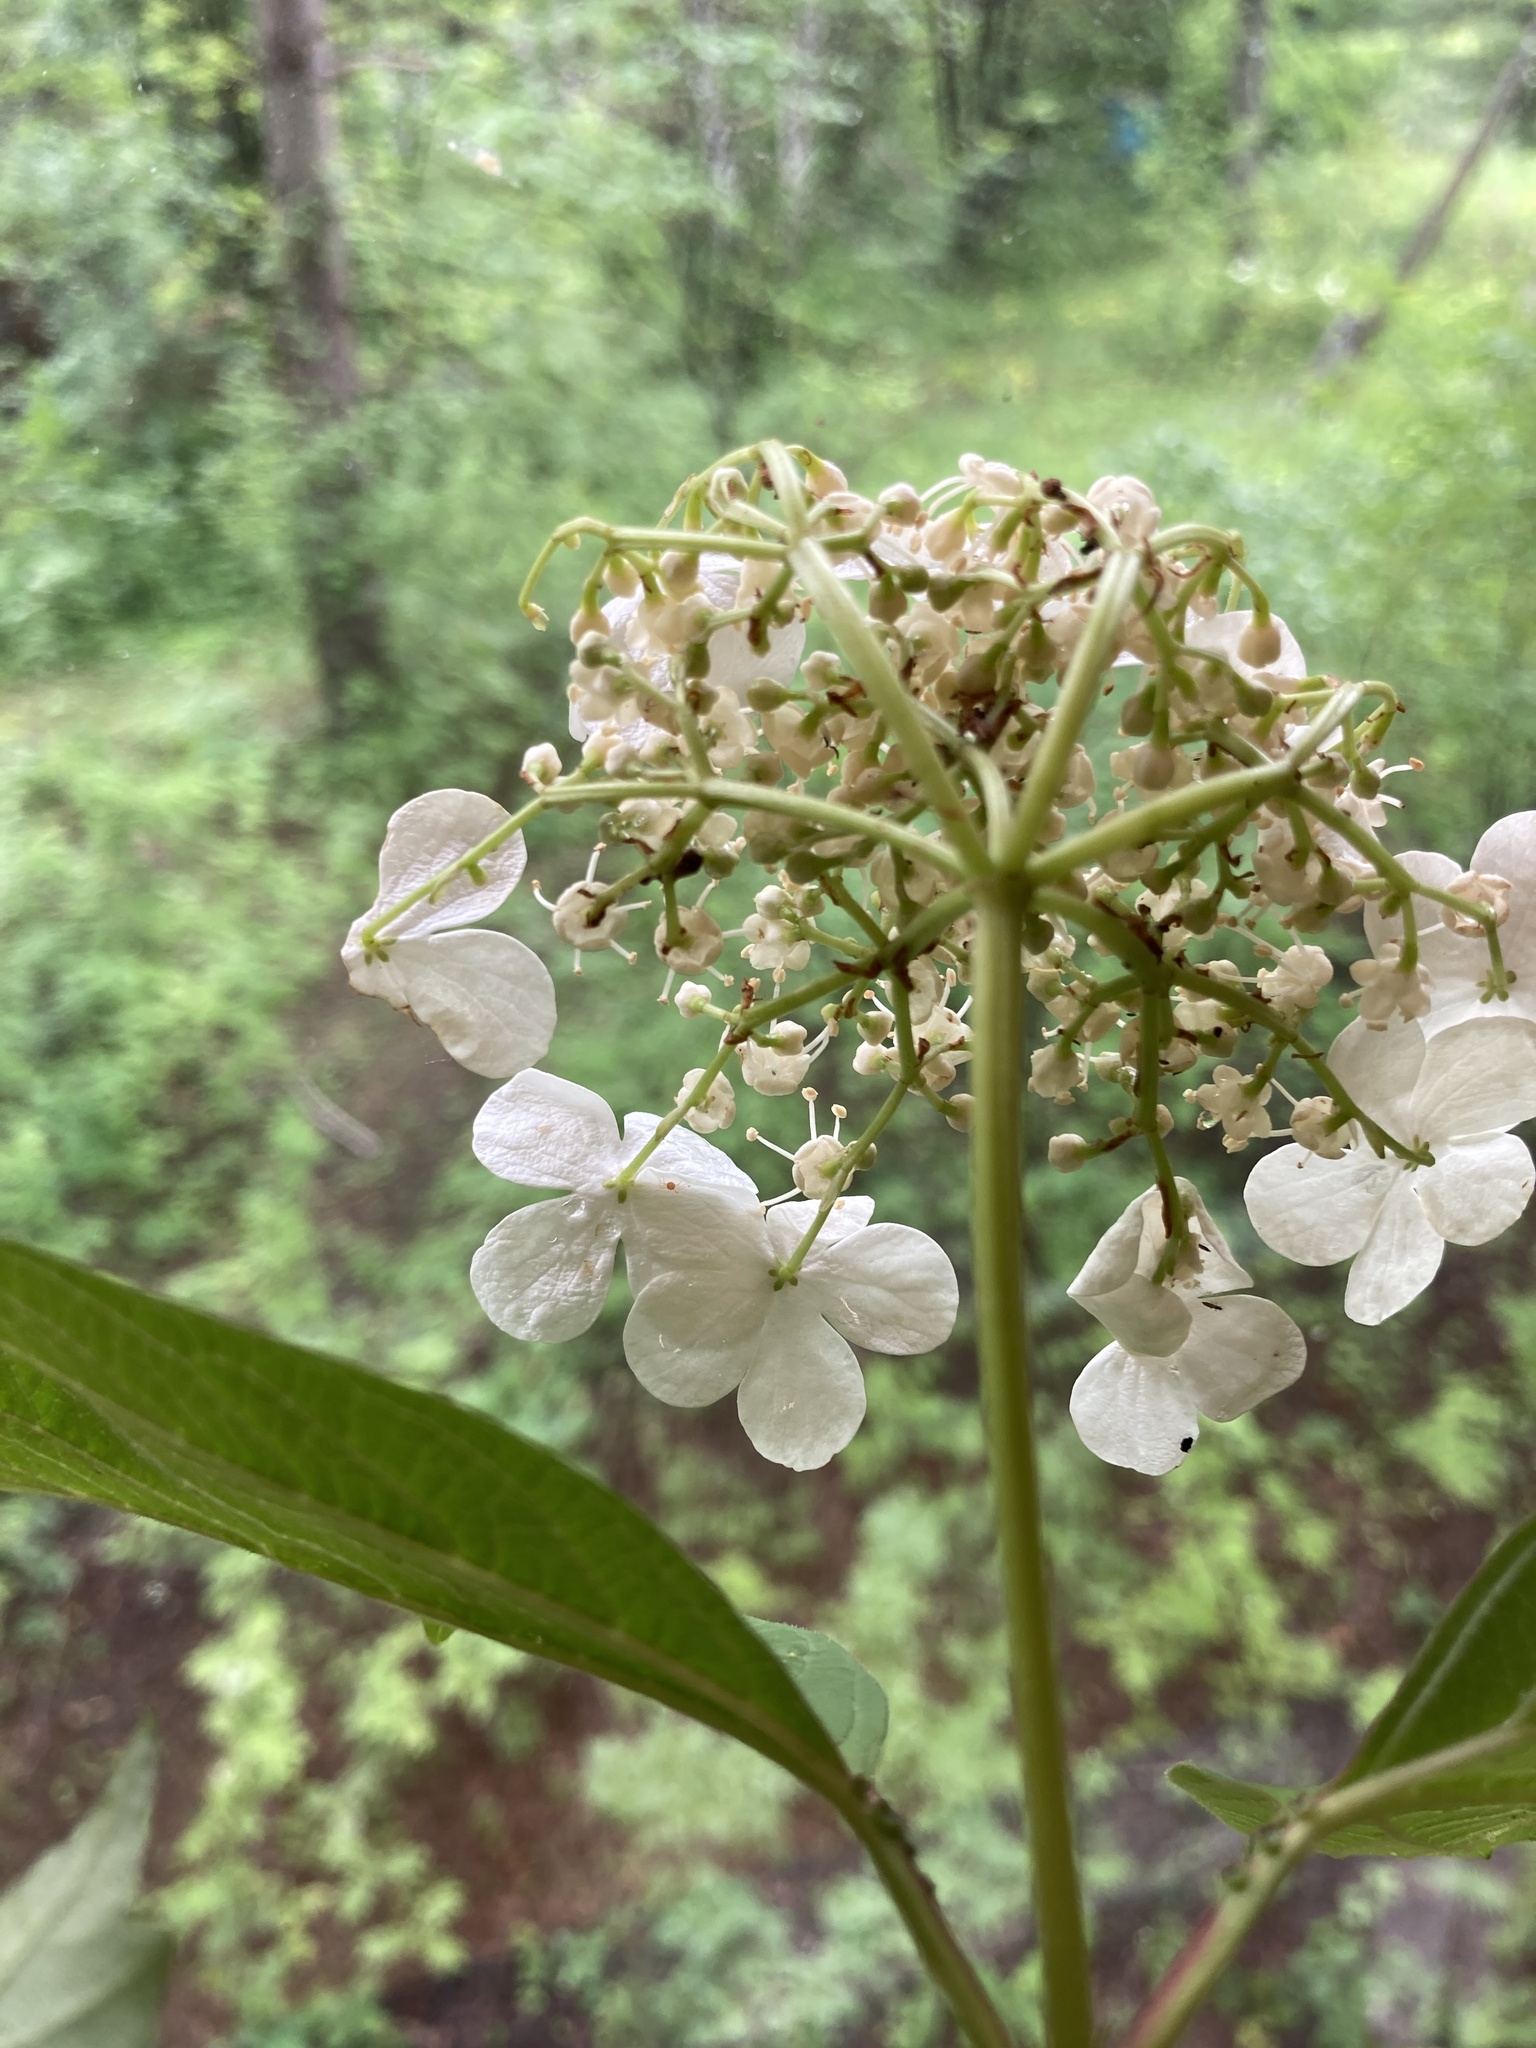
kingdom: Plantae
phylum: Tracheophyta
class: Magnoliopsida
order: Dipsacales
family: Viburnaceae
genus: Viburnum
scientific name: Viburnum opulus
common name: Guelder-rose
